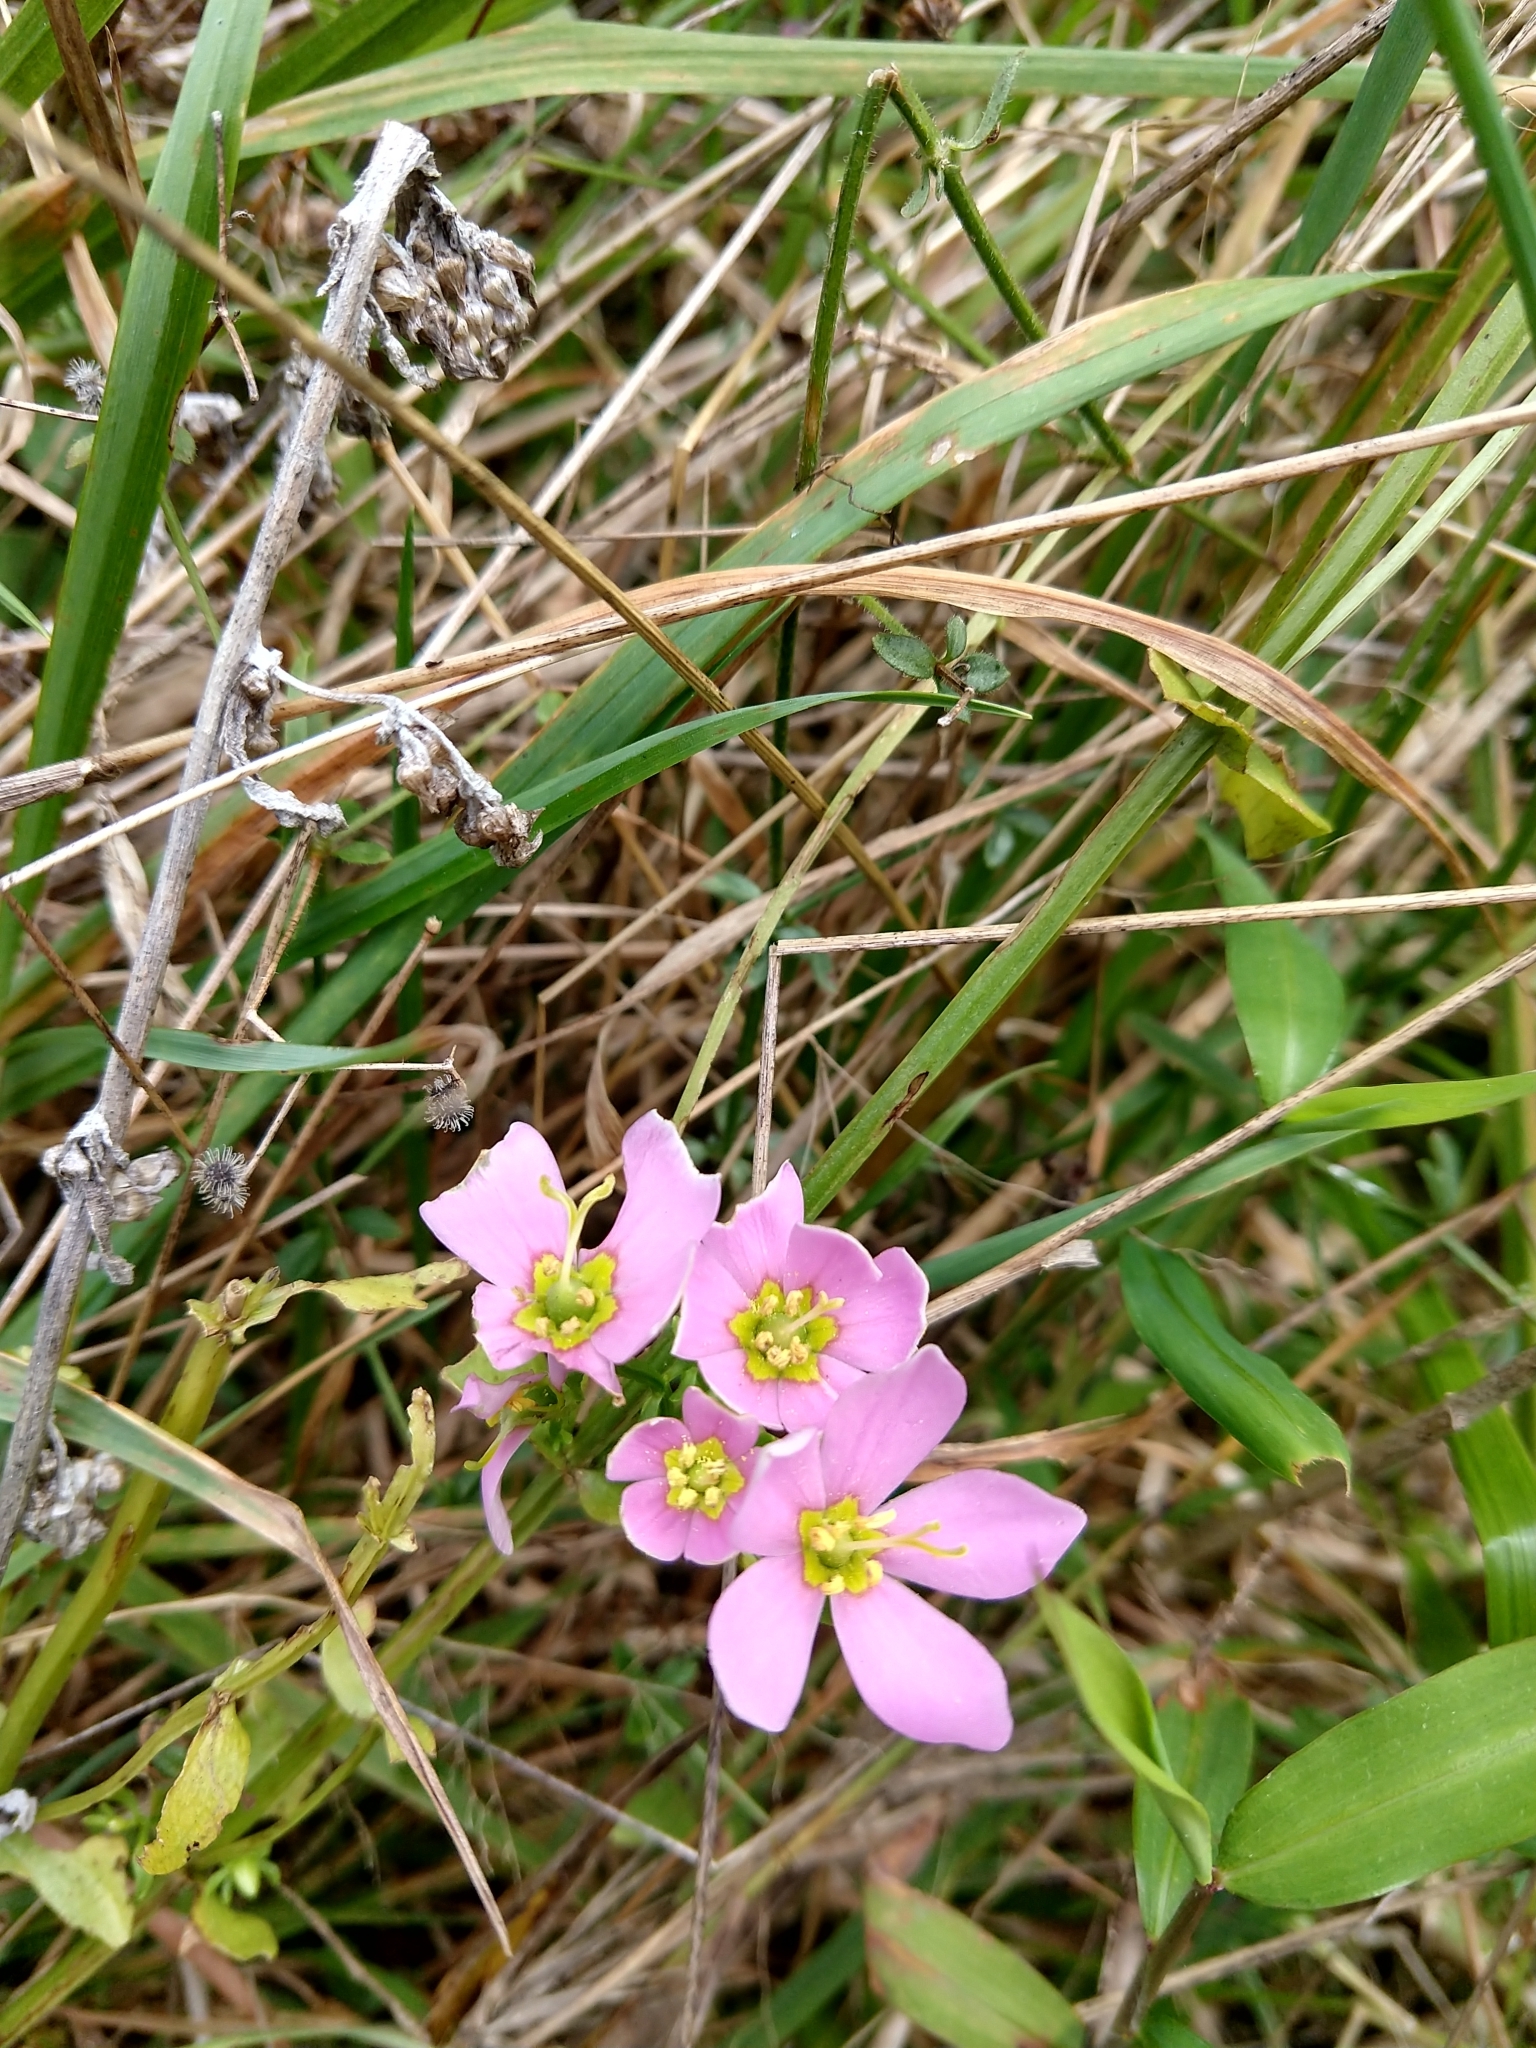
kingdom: Plantae
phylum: Tracheophyta
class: Magnoliopsida
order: Gentianales
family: Gentianaceae
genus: Sabatia
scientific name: Sabatia angularis
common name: Rose-pink
